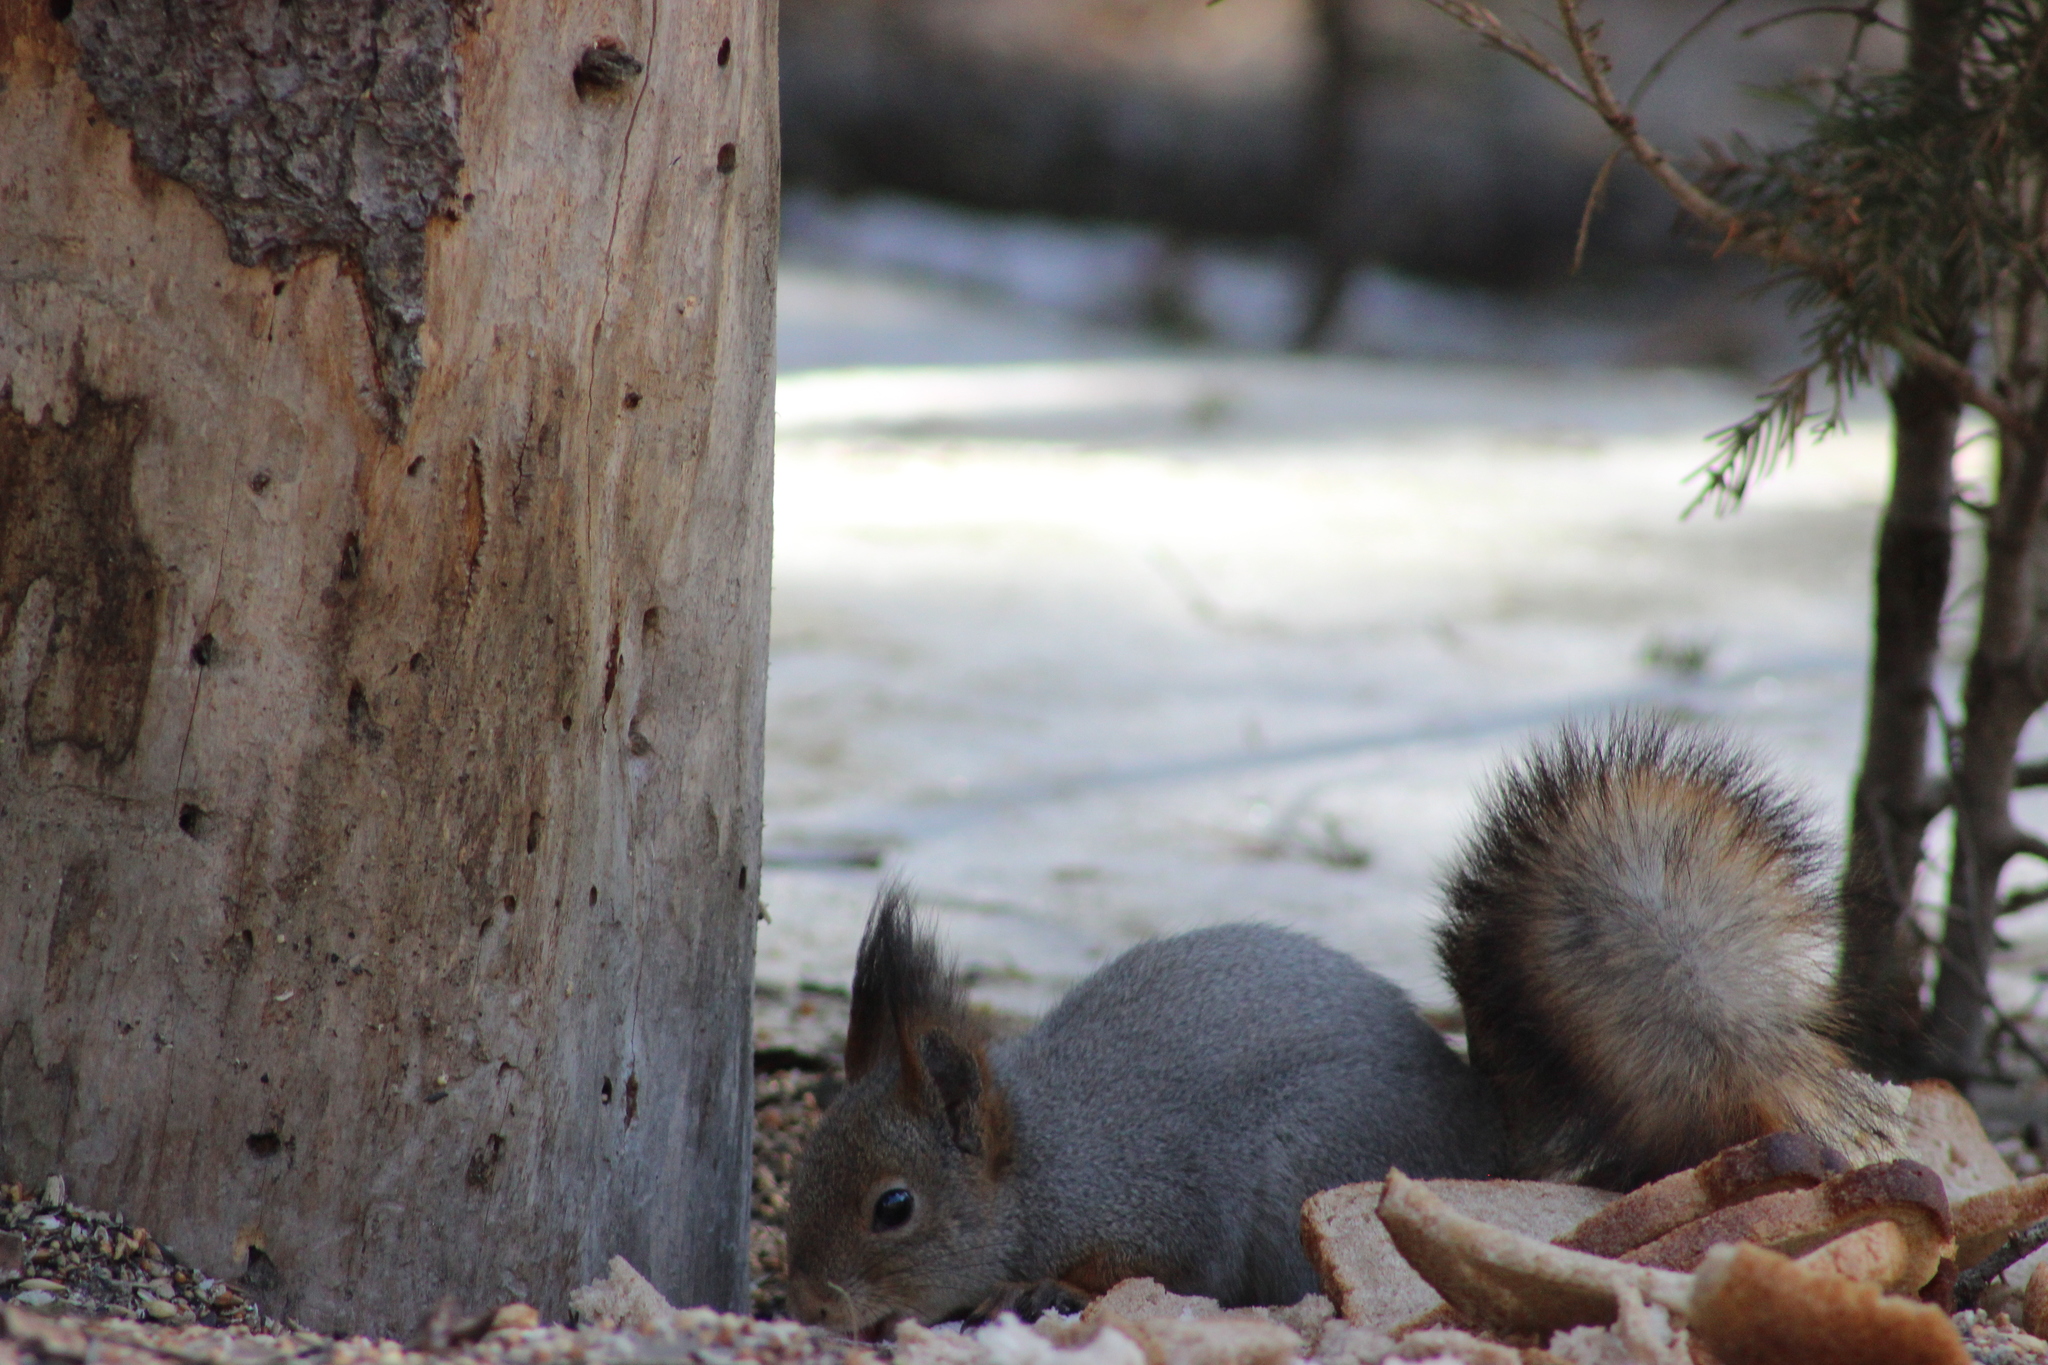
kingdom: Animalia
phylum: Chordata
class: Mammalia
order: Rodentia
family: Sciuridae
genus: Sciurus
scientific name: Sciurus vulgaris
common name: Eurasian red squirrel
